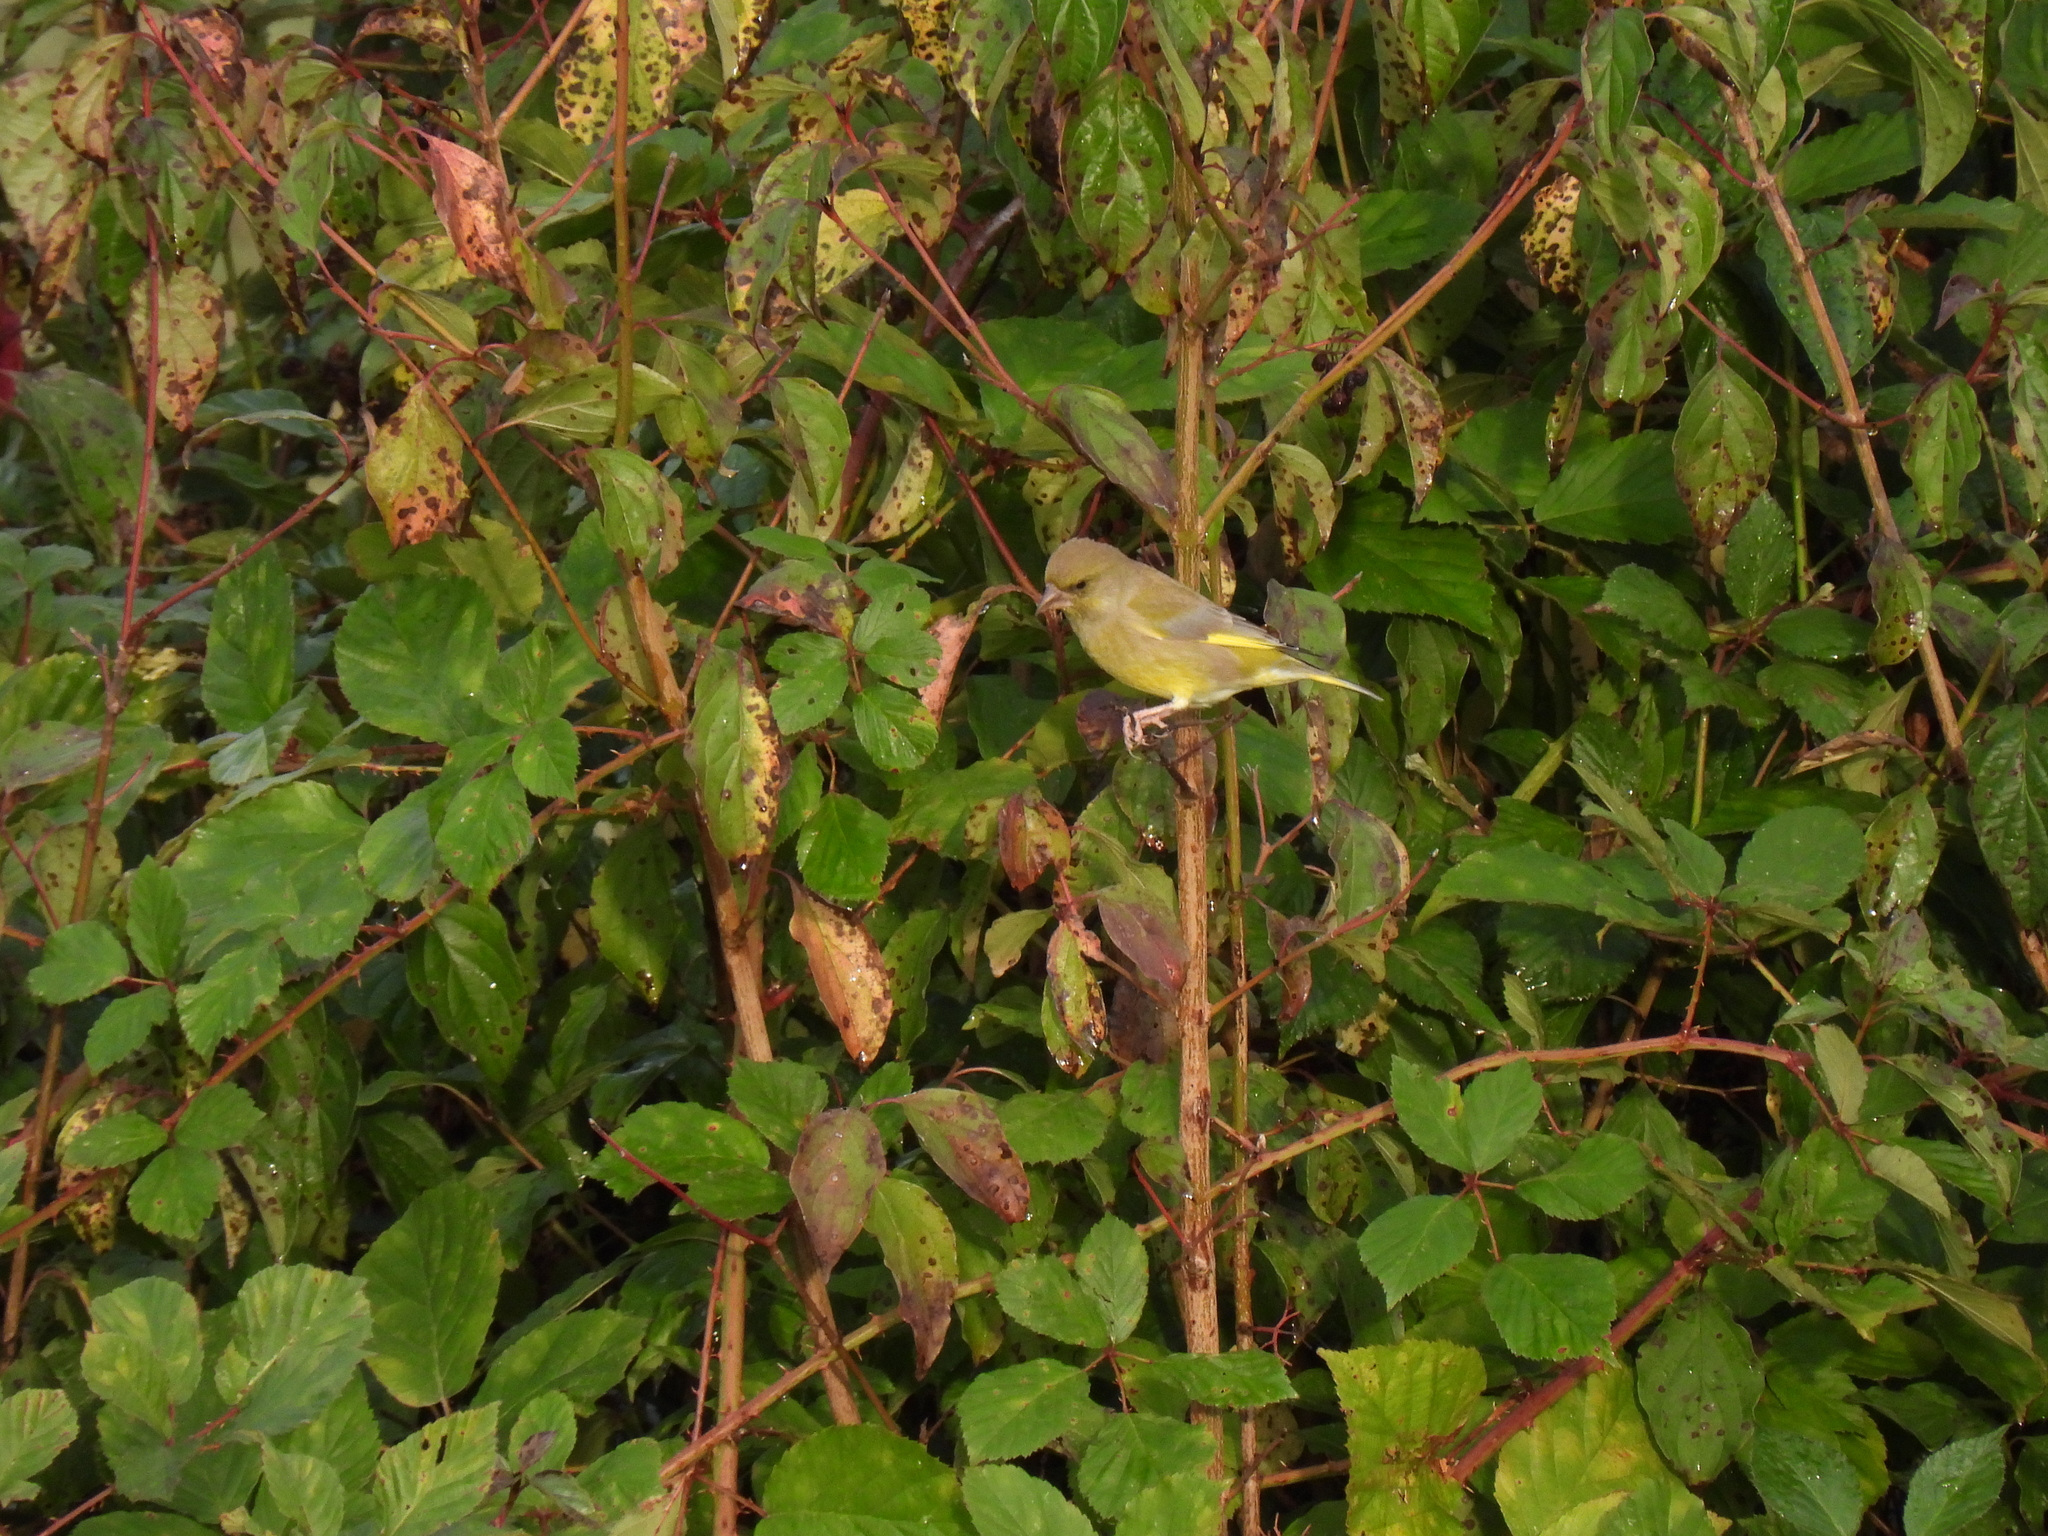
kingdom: Plantae
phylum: Tracheophyta
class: Liliopsida
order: Poales
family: Poaceae
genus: Chloris
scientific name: Chloris chloris
